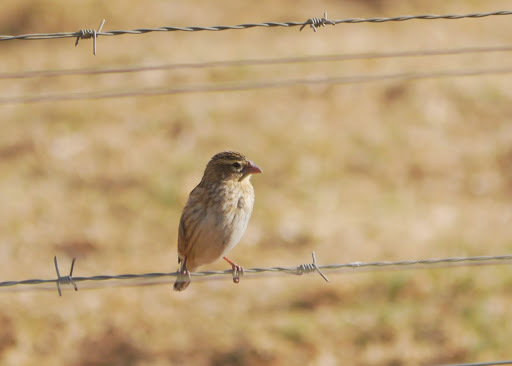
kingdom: Animalia
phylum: Chordata
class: Aves
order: Passeriformes
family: Ploceidae
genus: Quelea
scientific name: Quelea quelea
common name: Red-billed quelea
